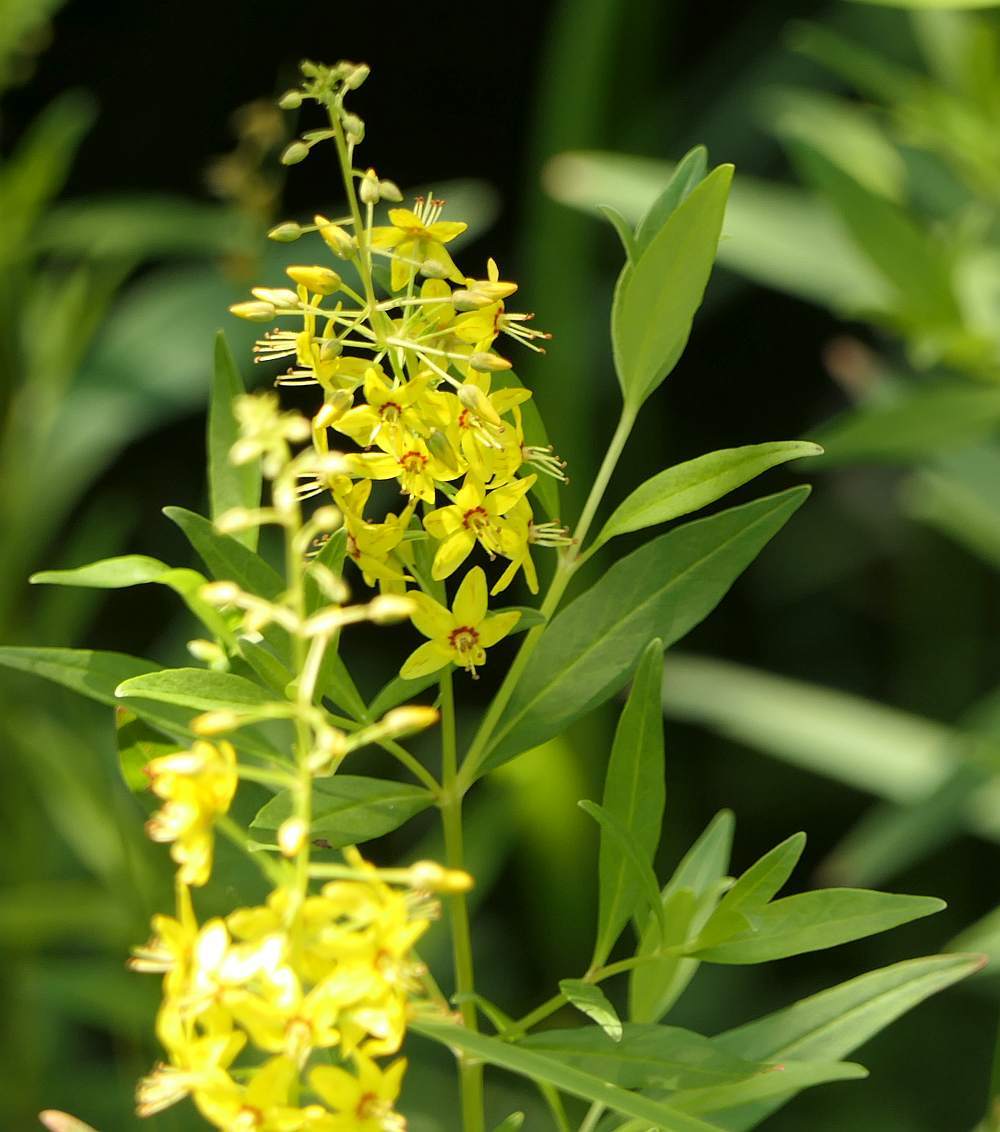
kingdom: Plantae
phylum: Tracheophyta
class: Magnoliopsida
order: Ericales
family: Primulaceae
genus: Lysimachia
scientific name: Lysimachia terrestris
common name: Lake loosestrife
